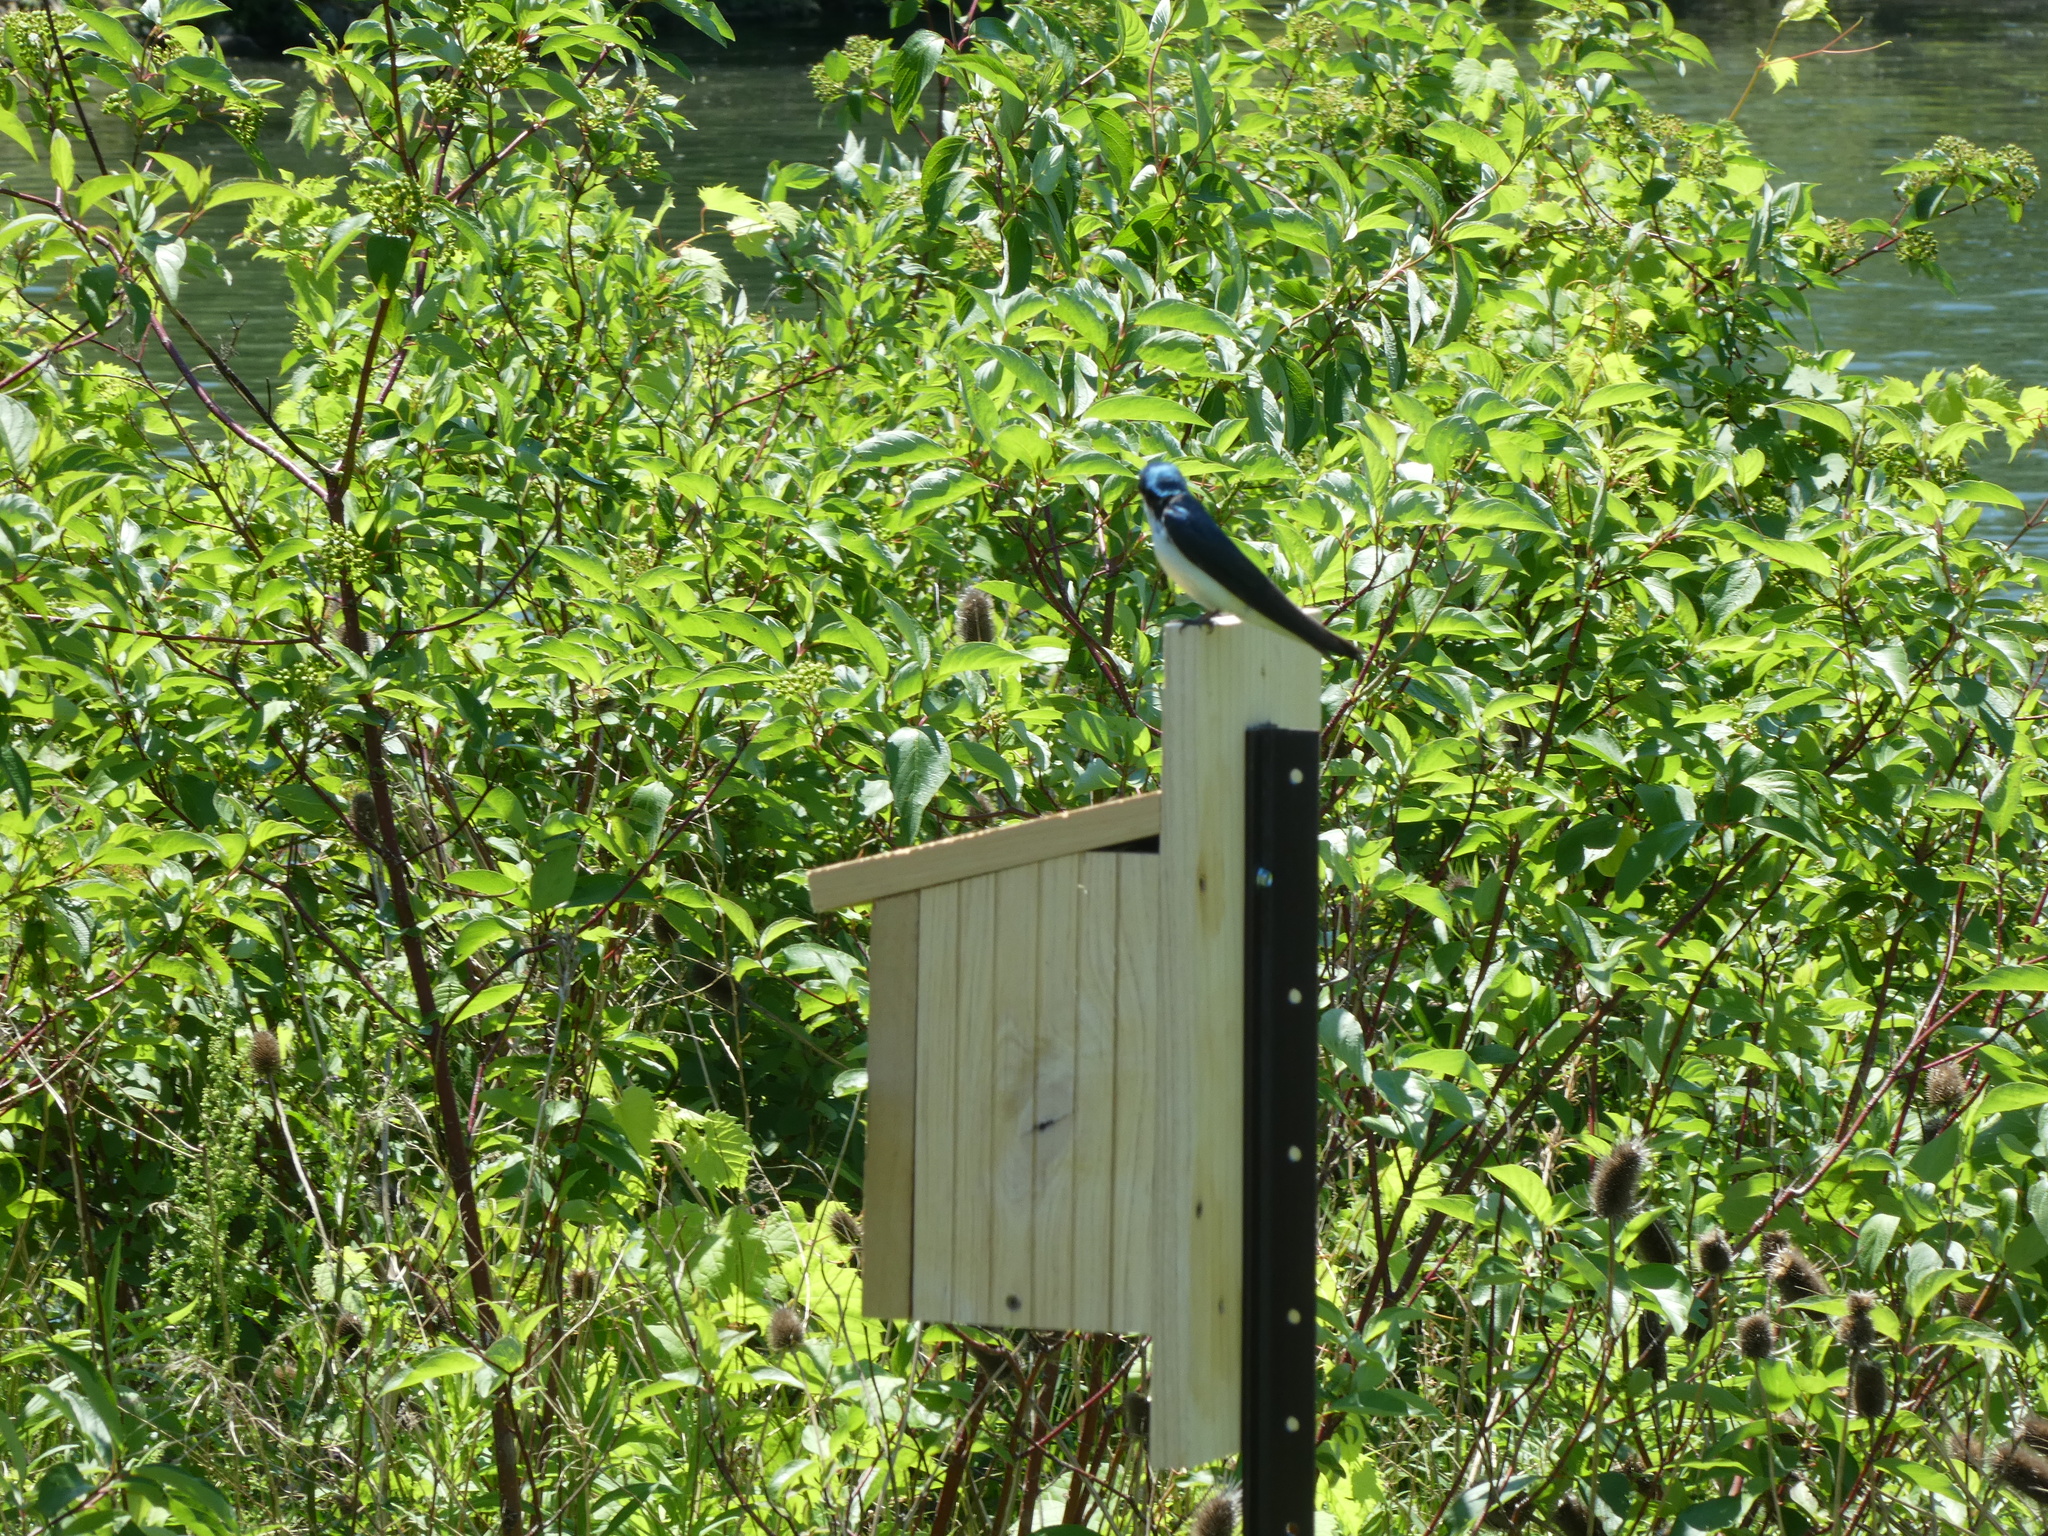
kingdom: Animalia
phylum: Chordata
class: Aves
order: Passeriformes
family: Hirundinidae
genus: Tachycineta
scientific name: Tachycineta bicolor
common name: Tree swallow
